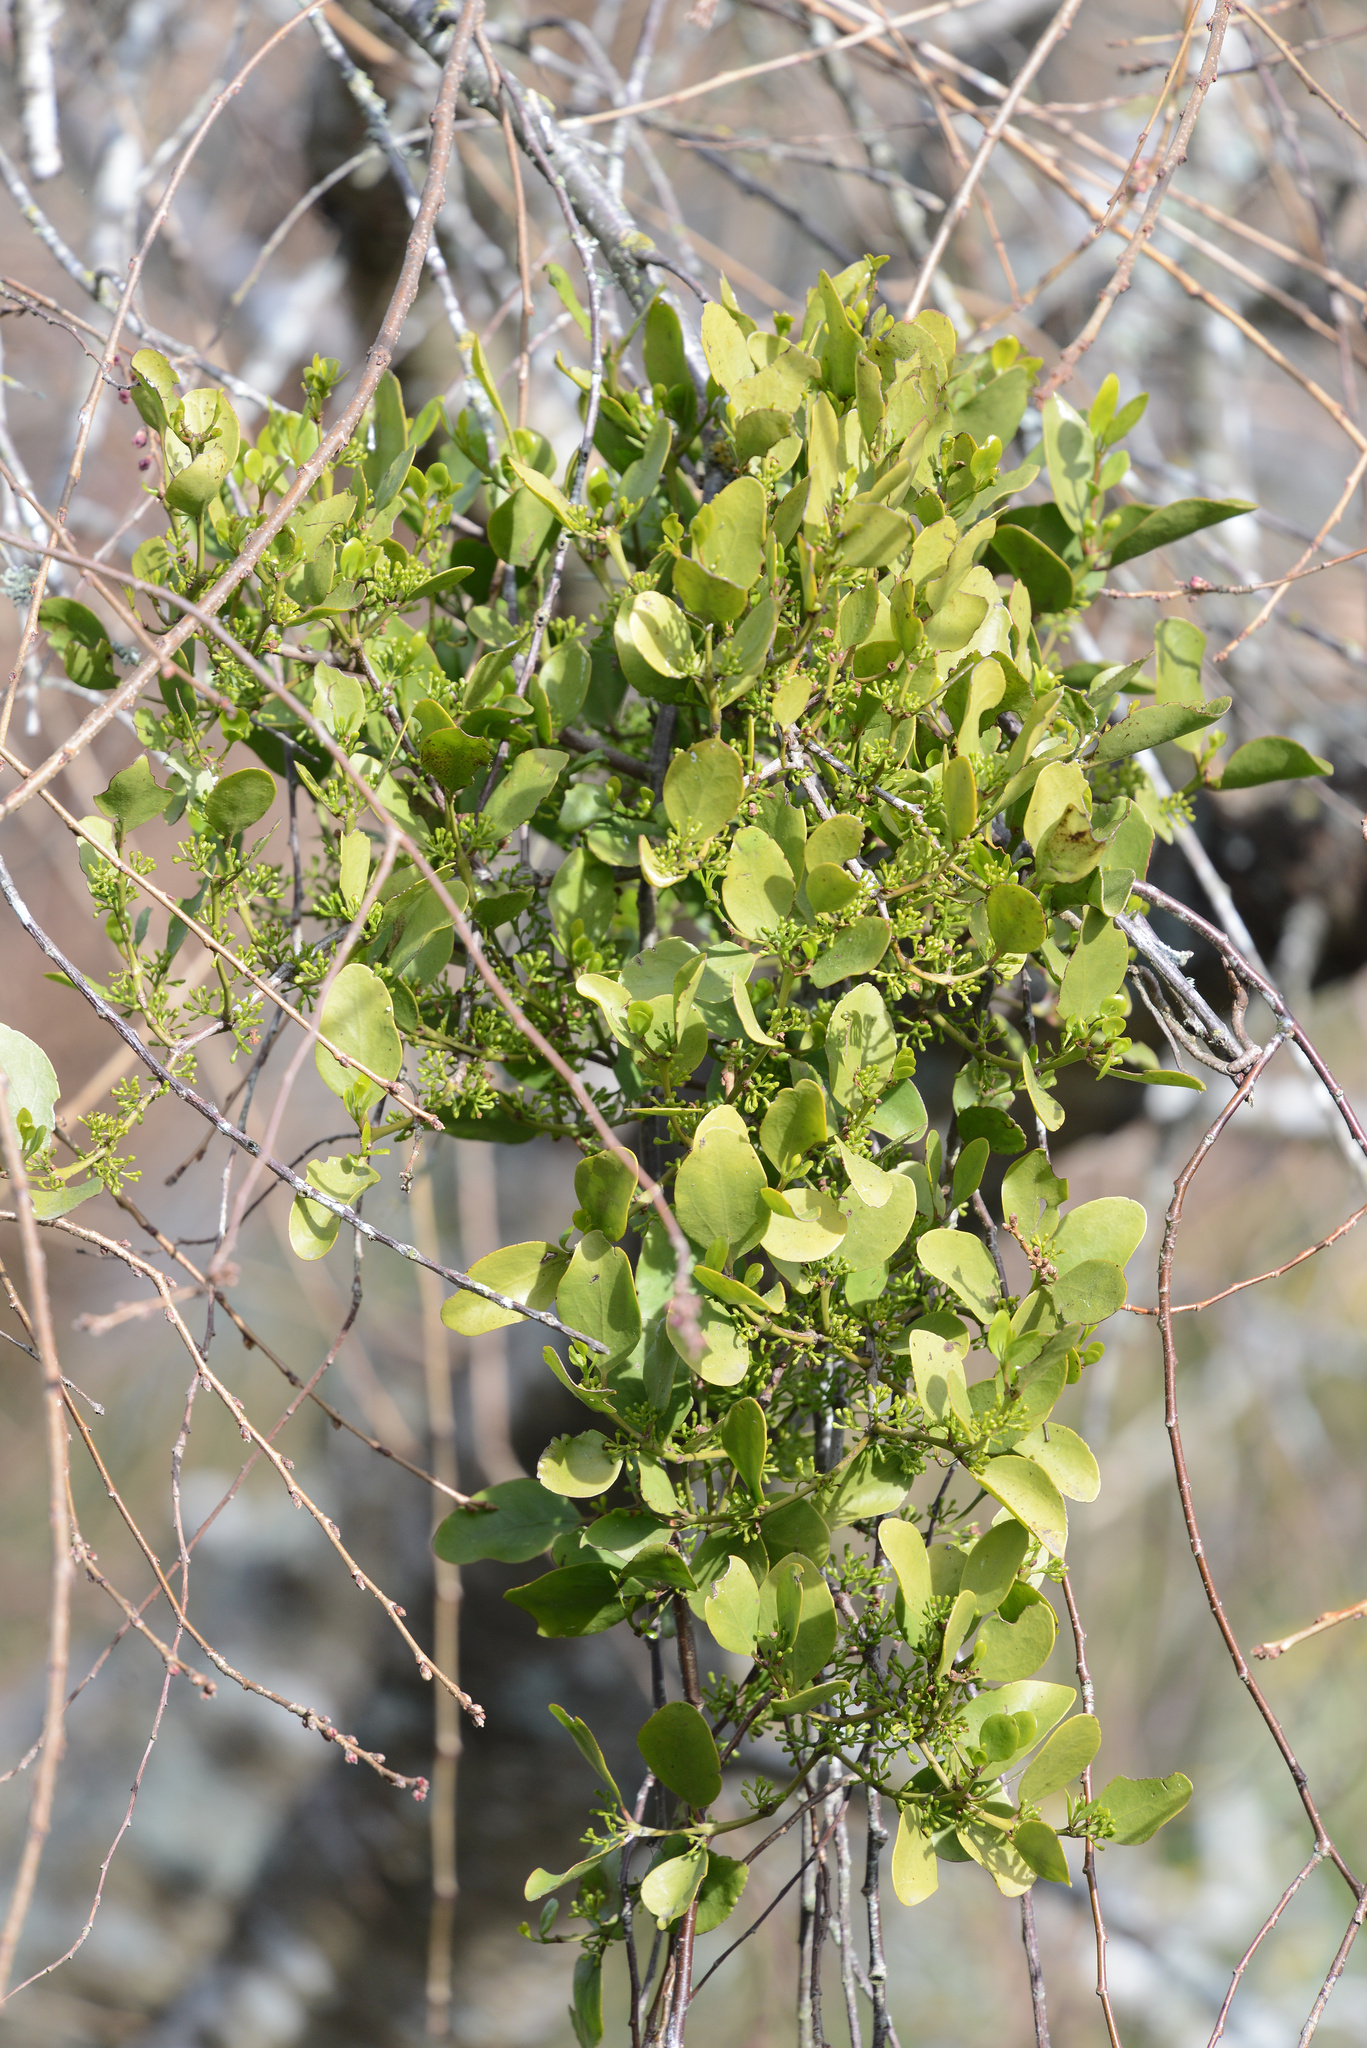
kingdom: Plantae
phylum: Tracheophyta
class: Magnoliopsida
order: Santalales
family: Loranthaceae
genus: Ileostylus
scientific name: Ileostylus micranthus
